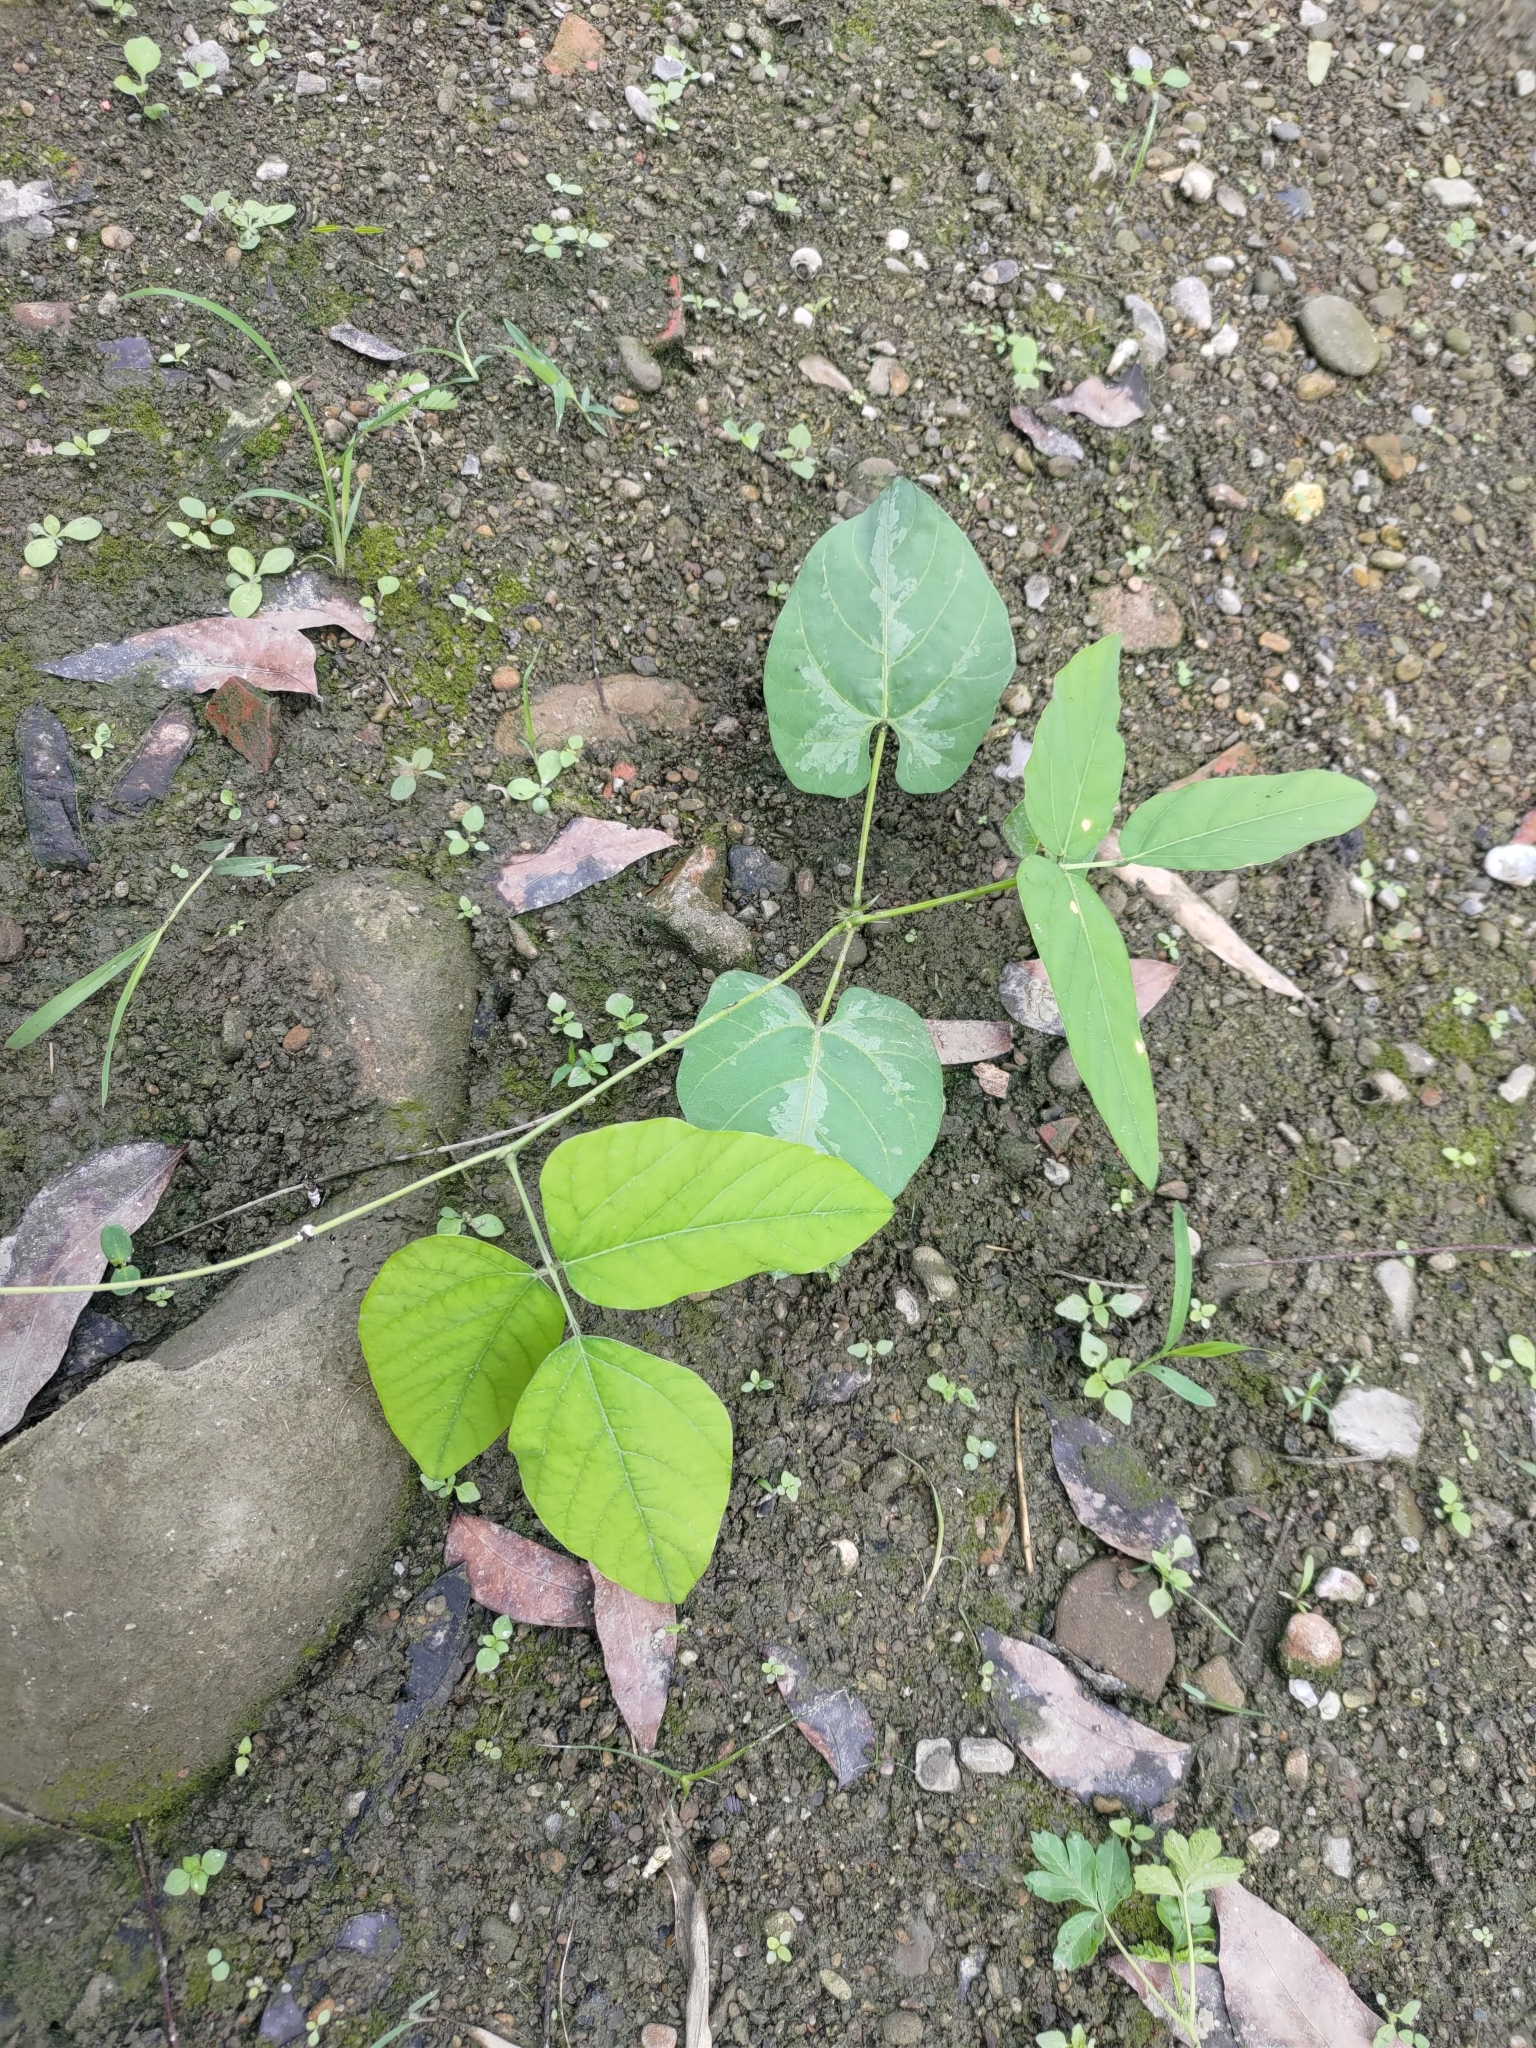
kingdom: Plantae
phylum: Tracheophyta
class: Magnoliopsida
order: Fabales
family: Fabaceae
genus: Pueraria
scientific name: Pueraria montana
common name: Kudzu
